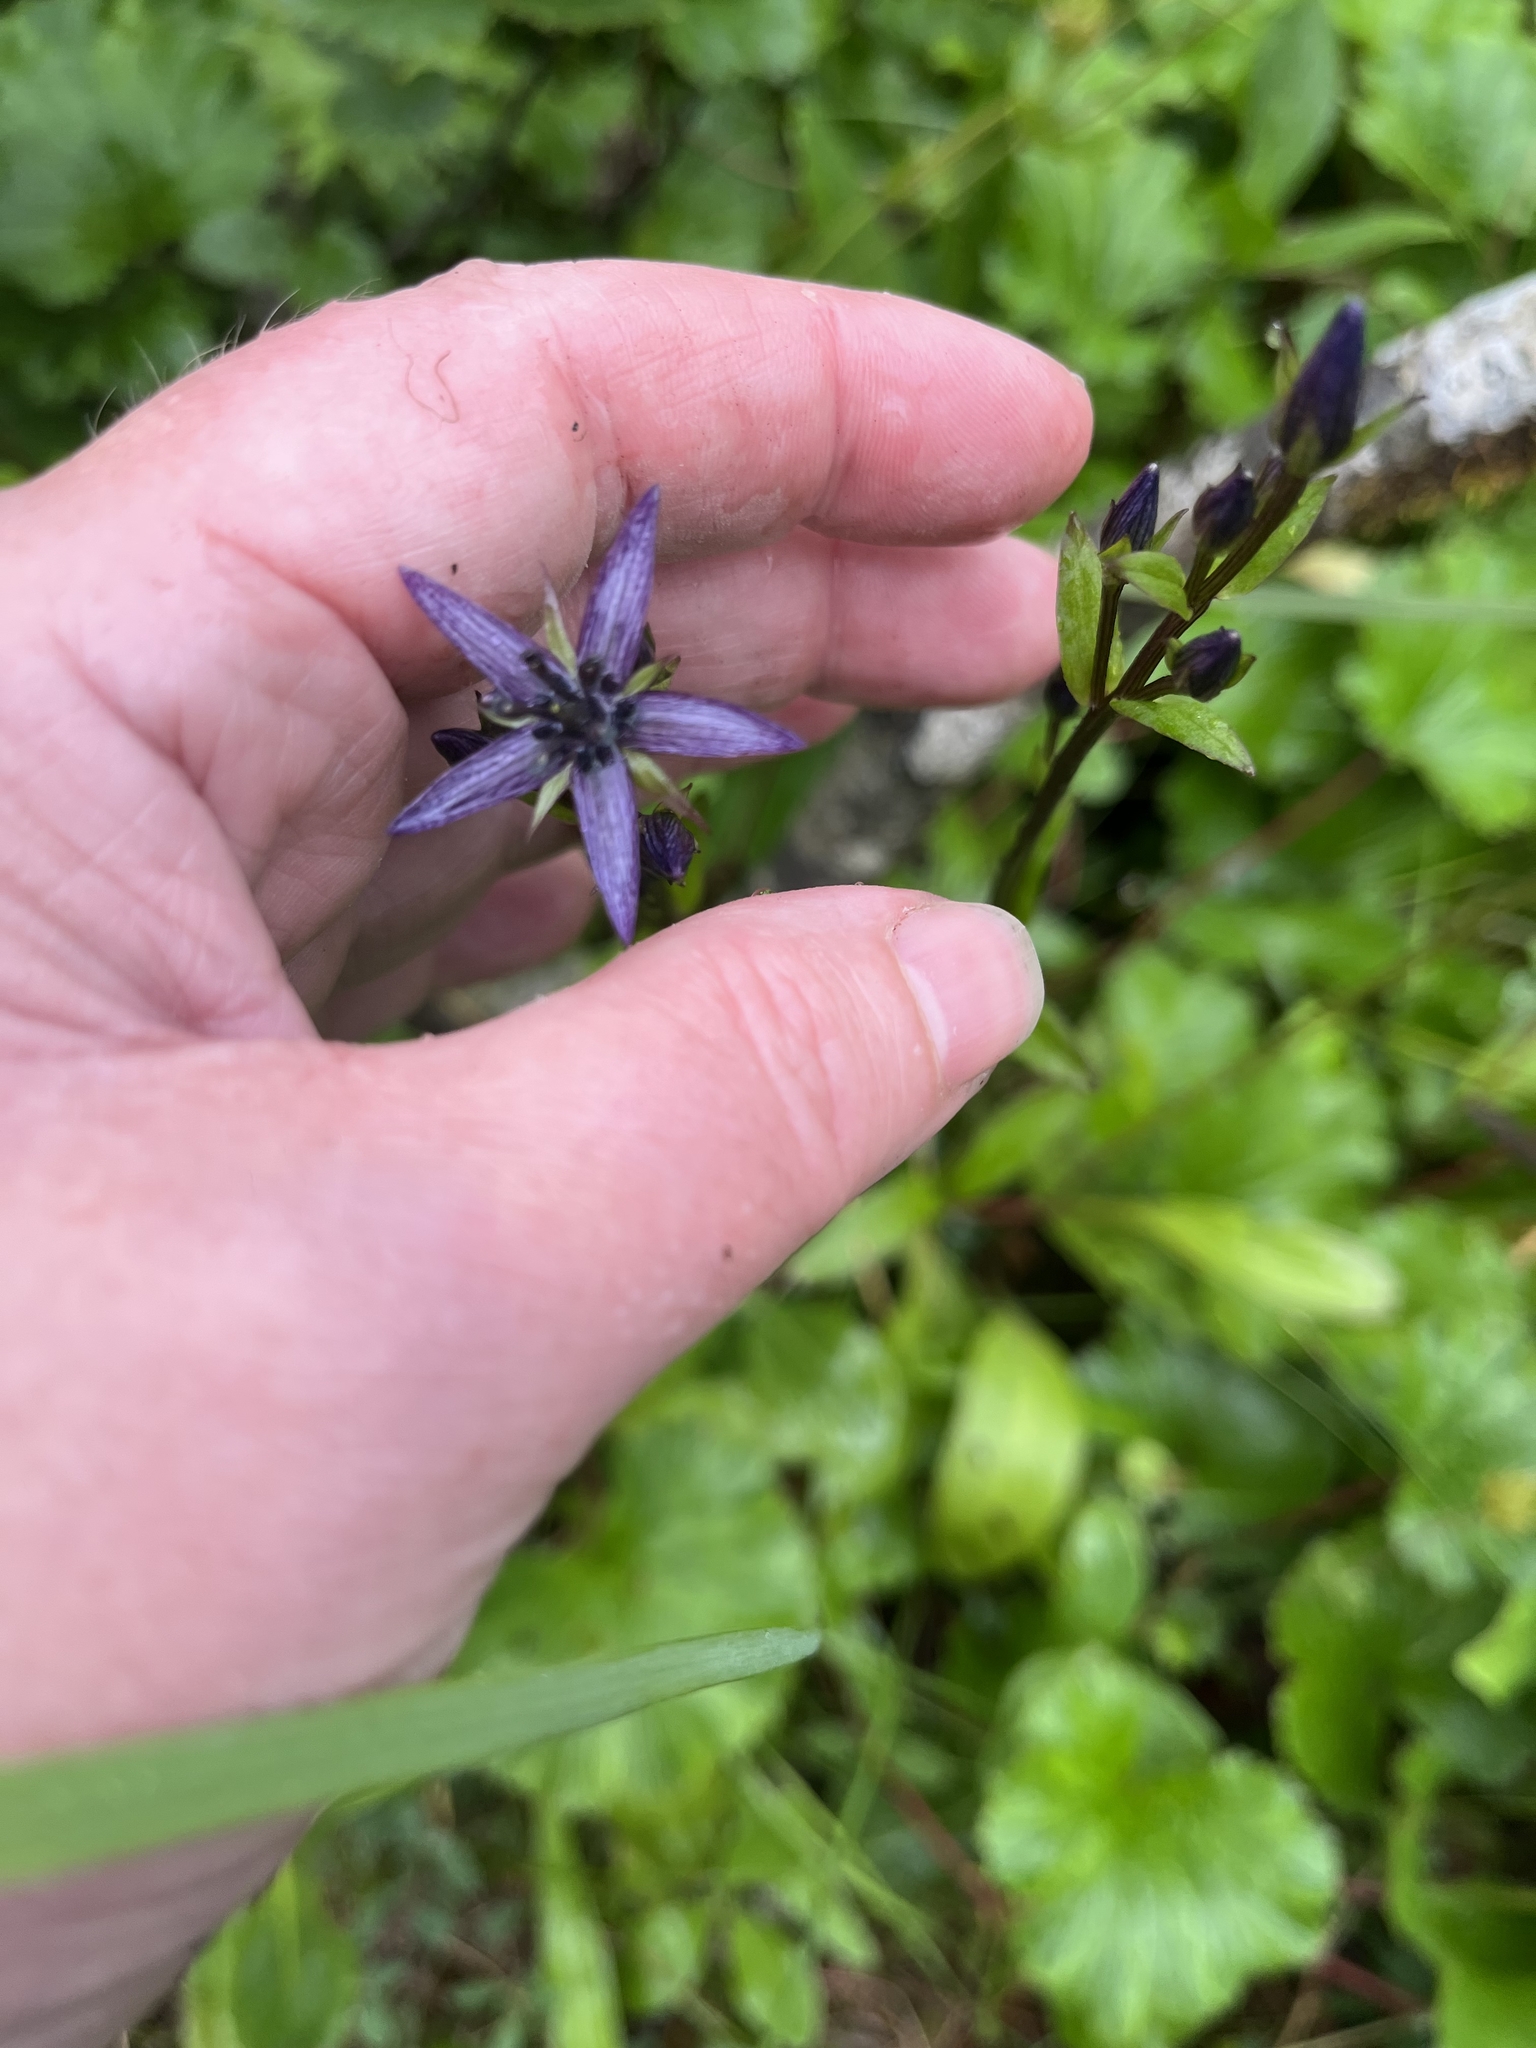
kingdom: Plantae
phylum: Tracheophyta
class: Magnoliopsida
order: Gentianales
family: Gentianaceae
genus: Swertia
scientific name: Swertia perennis
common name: Alpine bog swertia
